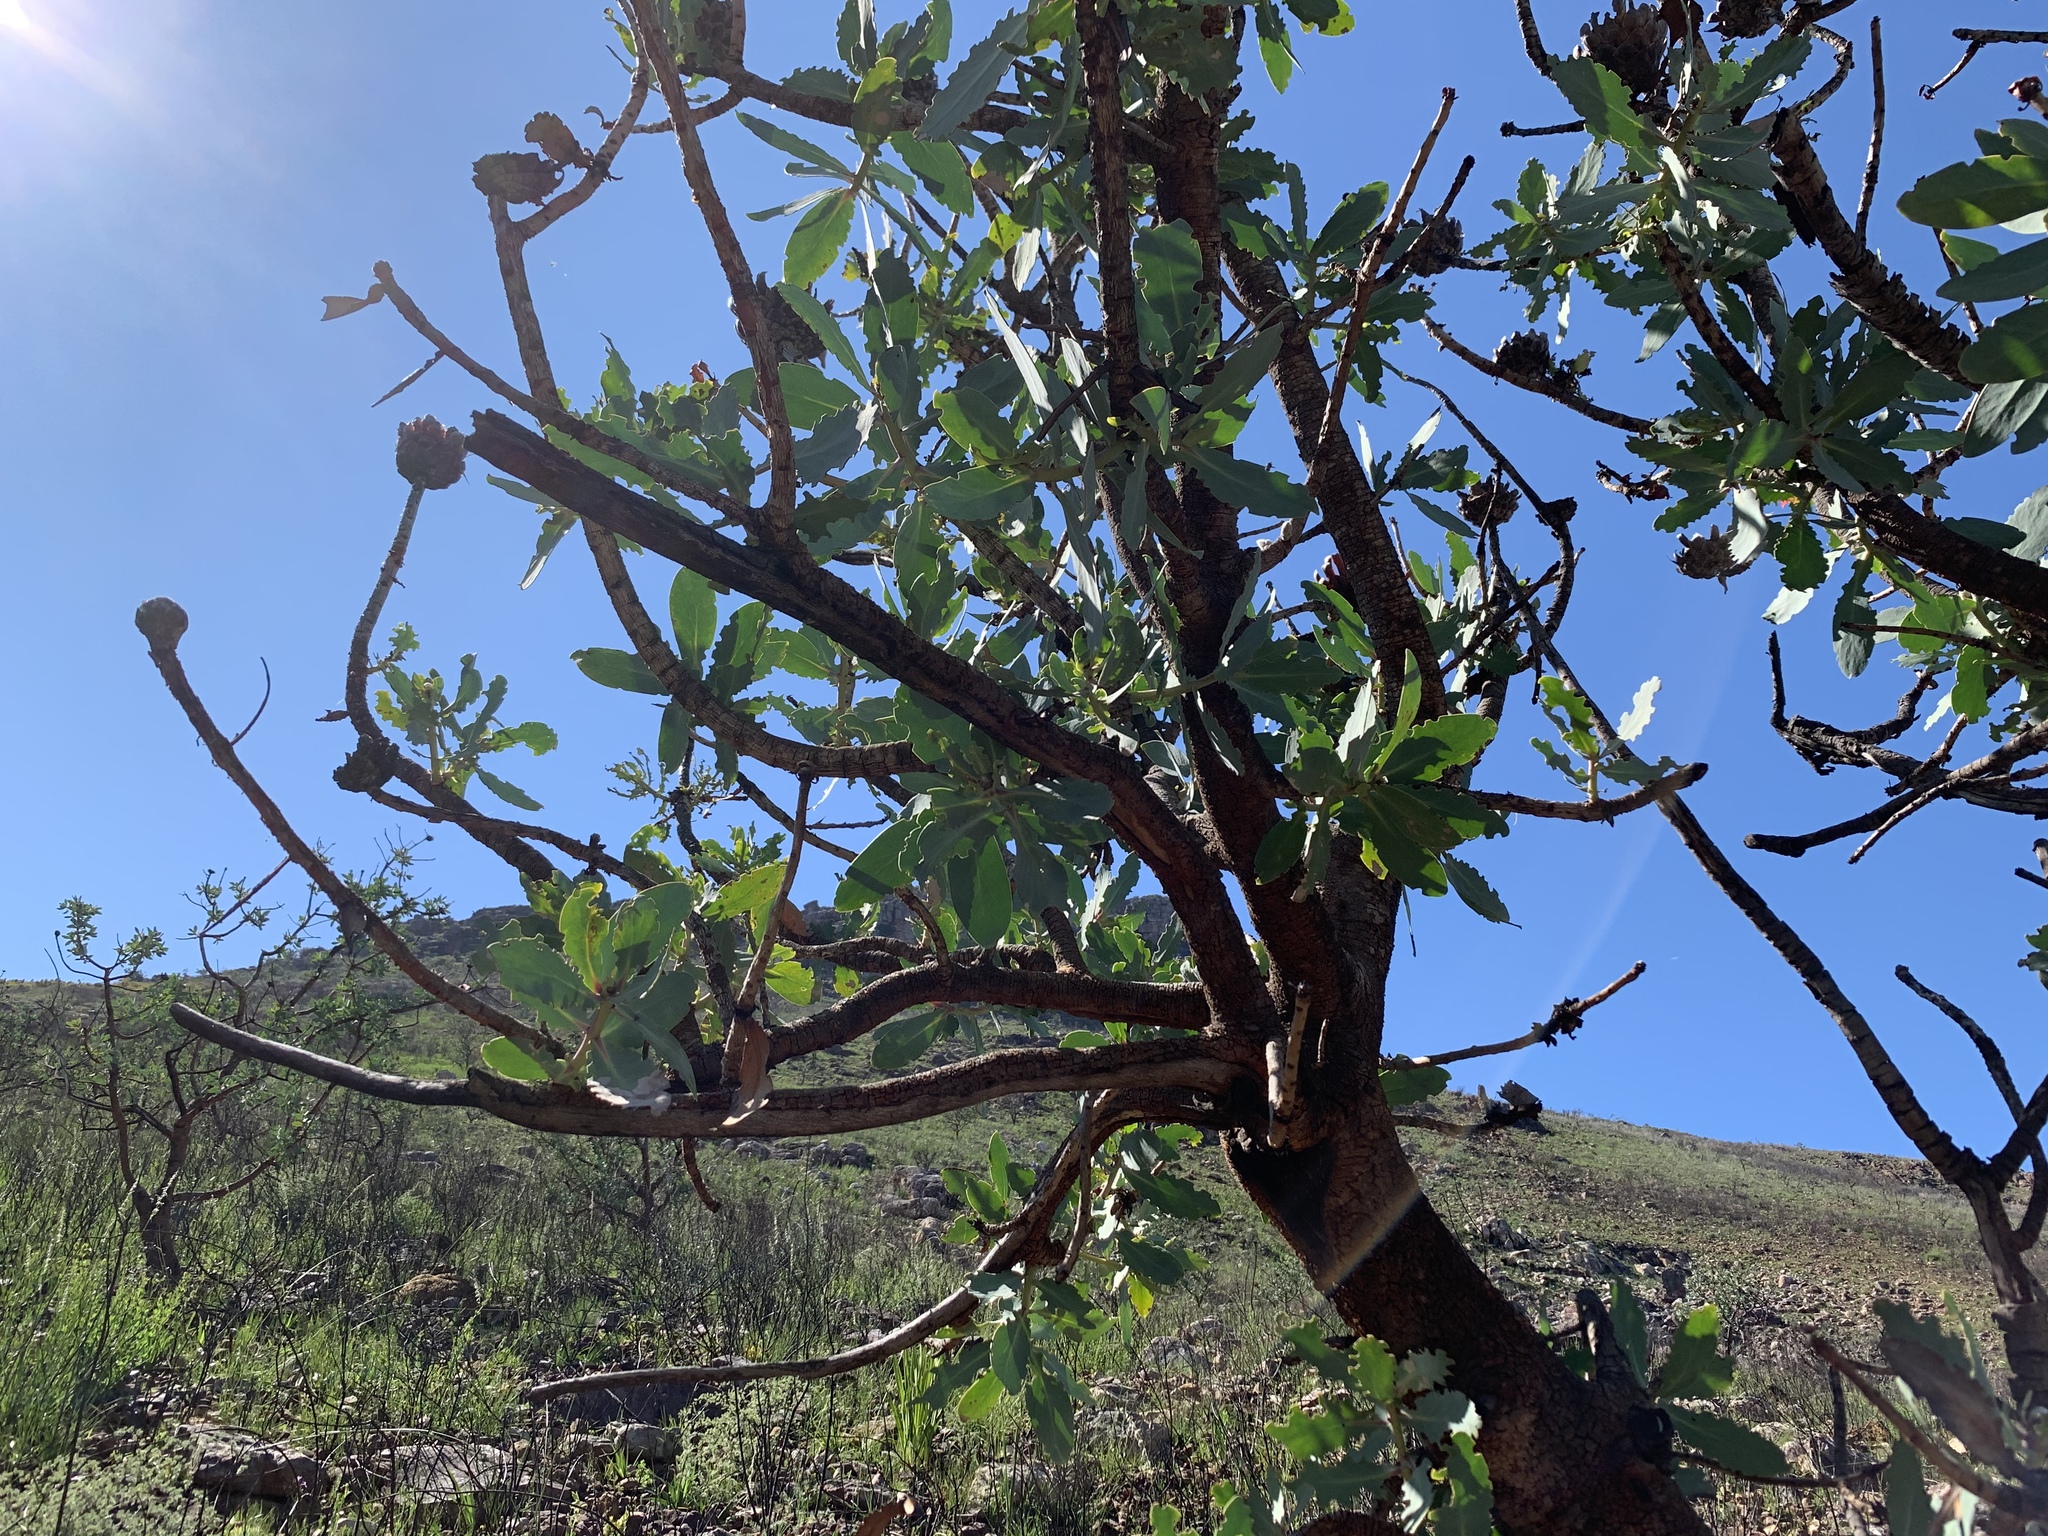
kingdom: Plantae
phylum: Tracheophyta
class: Magnoliopsida
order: Proteales
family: Proteaceae
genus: Protea
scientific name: Protea nitida
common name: Tree protea
